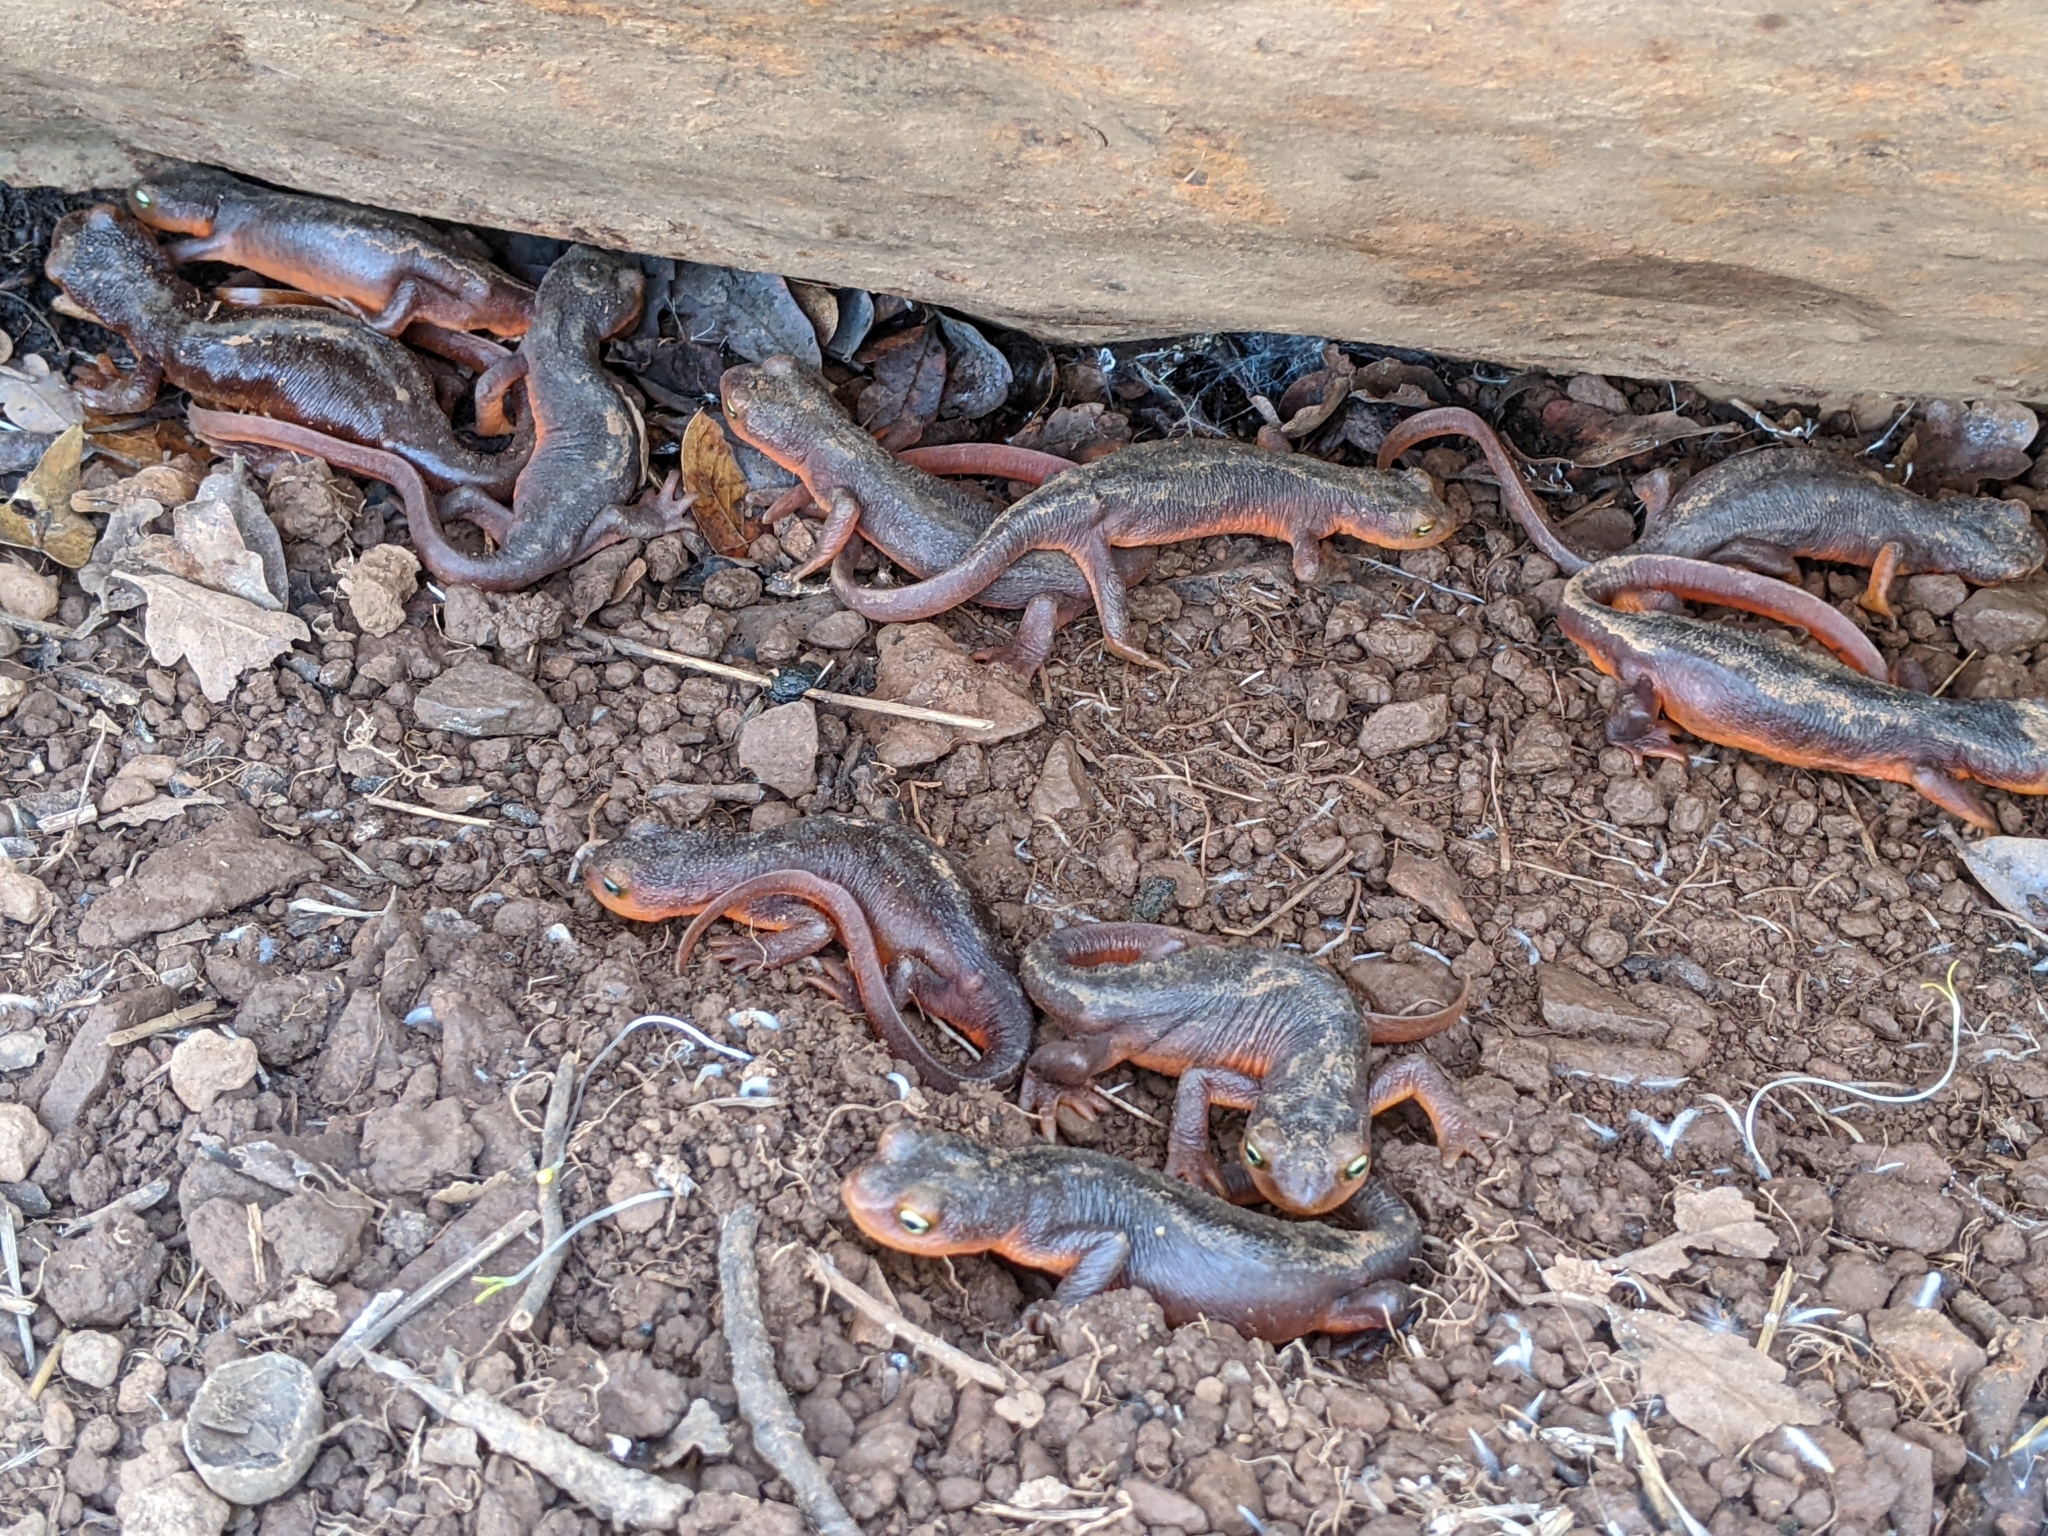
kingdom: Animalia
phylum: Chordata
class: Amphibia
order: Caudata
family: Salamandridae
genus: Taricha
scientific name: Taricha sierrae
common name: Sierra newt
